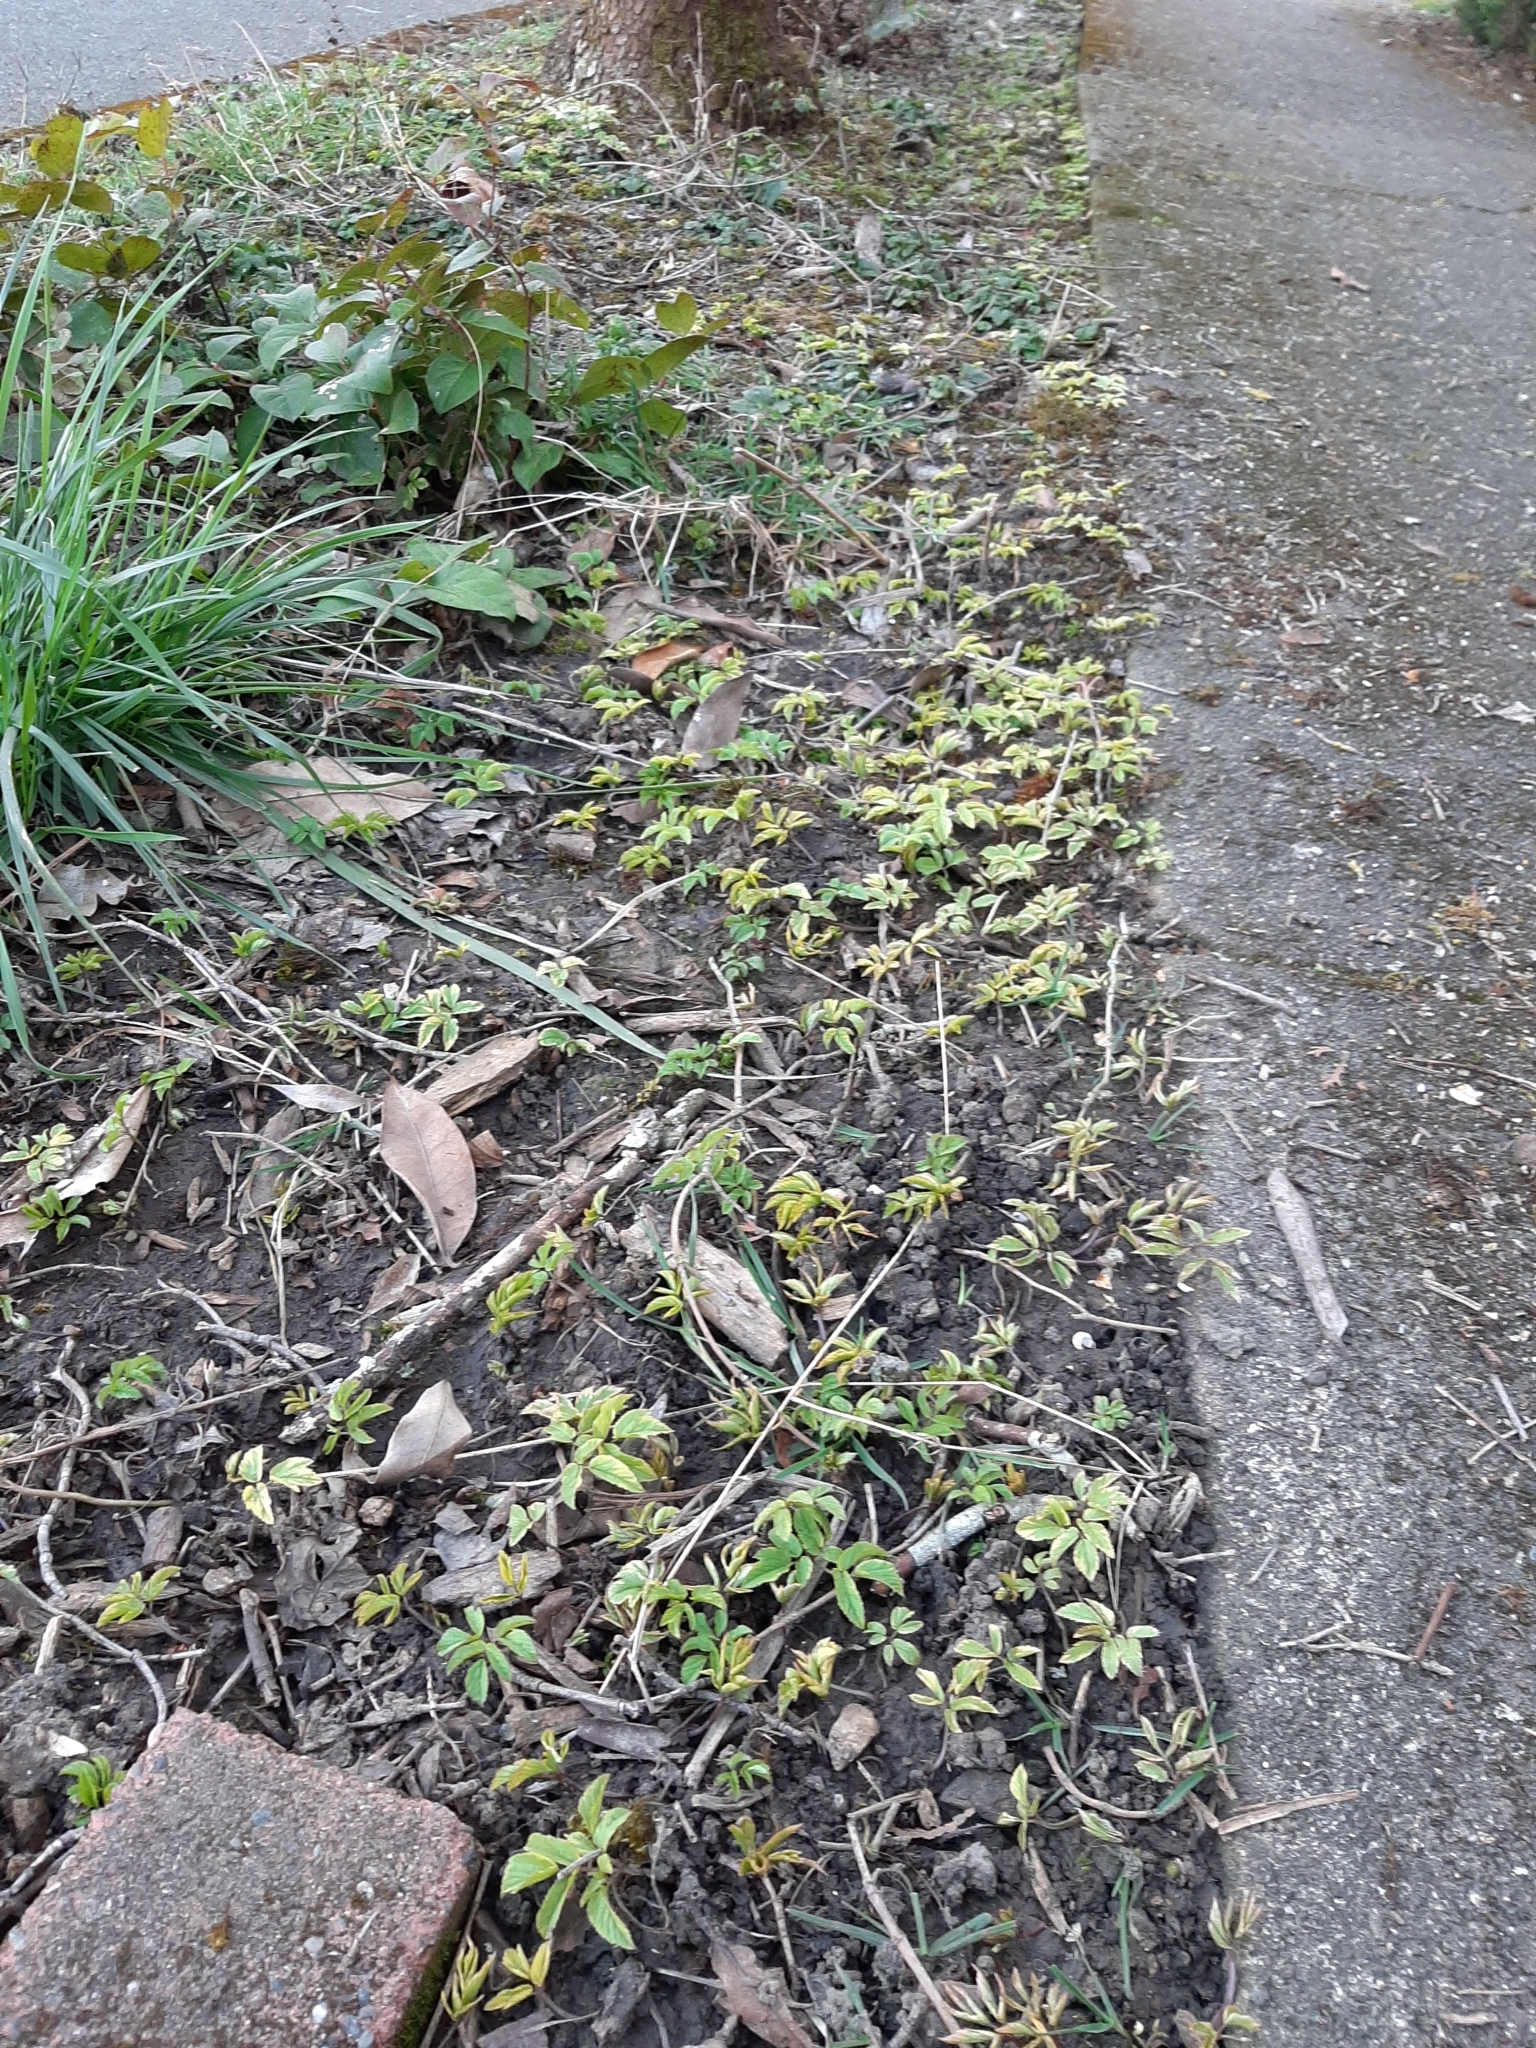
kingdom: Plantae
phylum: Tracheophyta
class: Magnoliopsida
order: Apiales
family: Apiaceae
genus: Aegopodium
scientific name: Aegopodium podagraria
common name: Ground-elder
